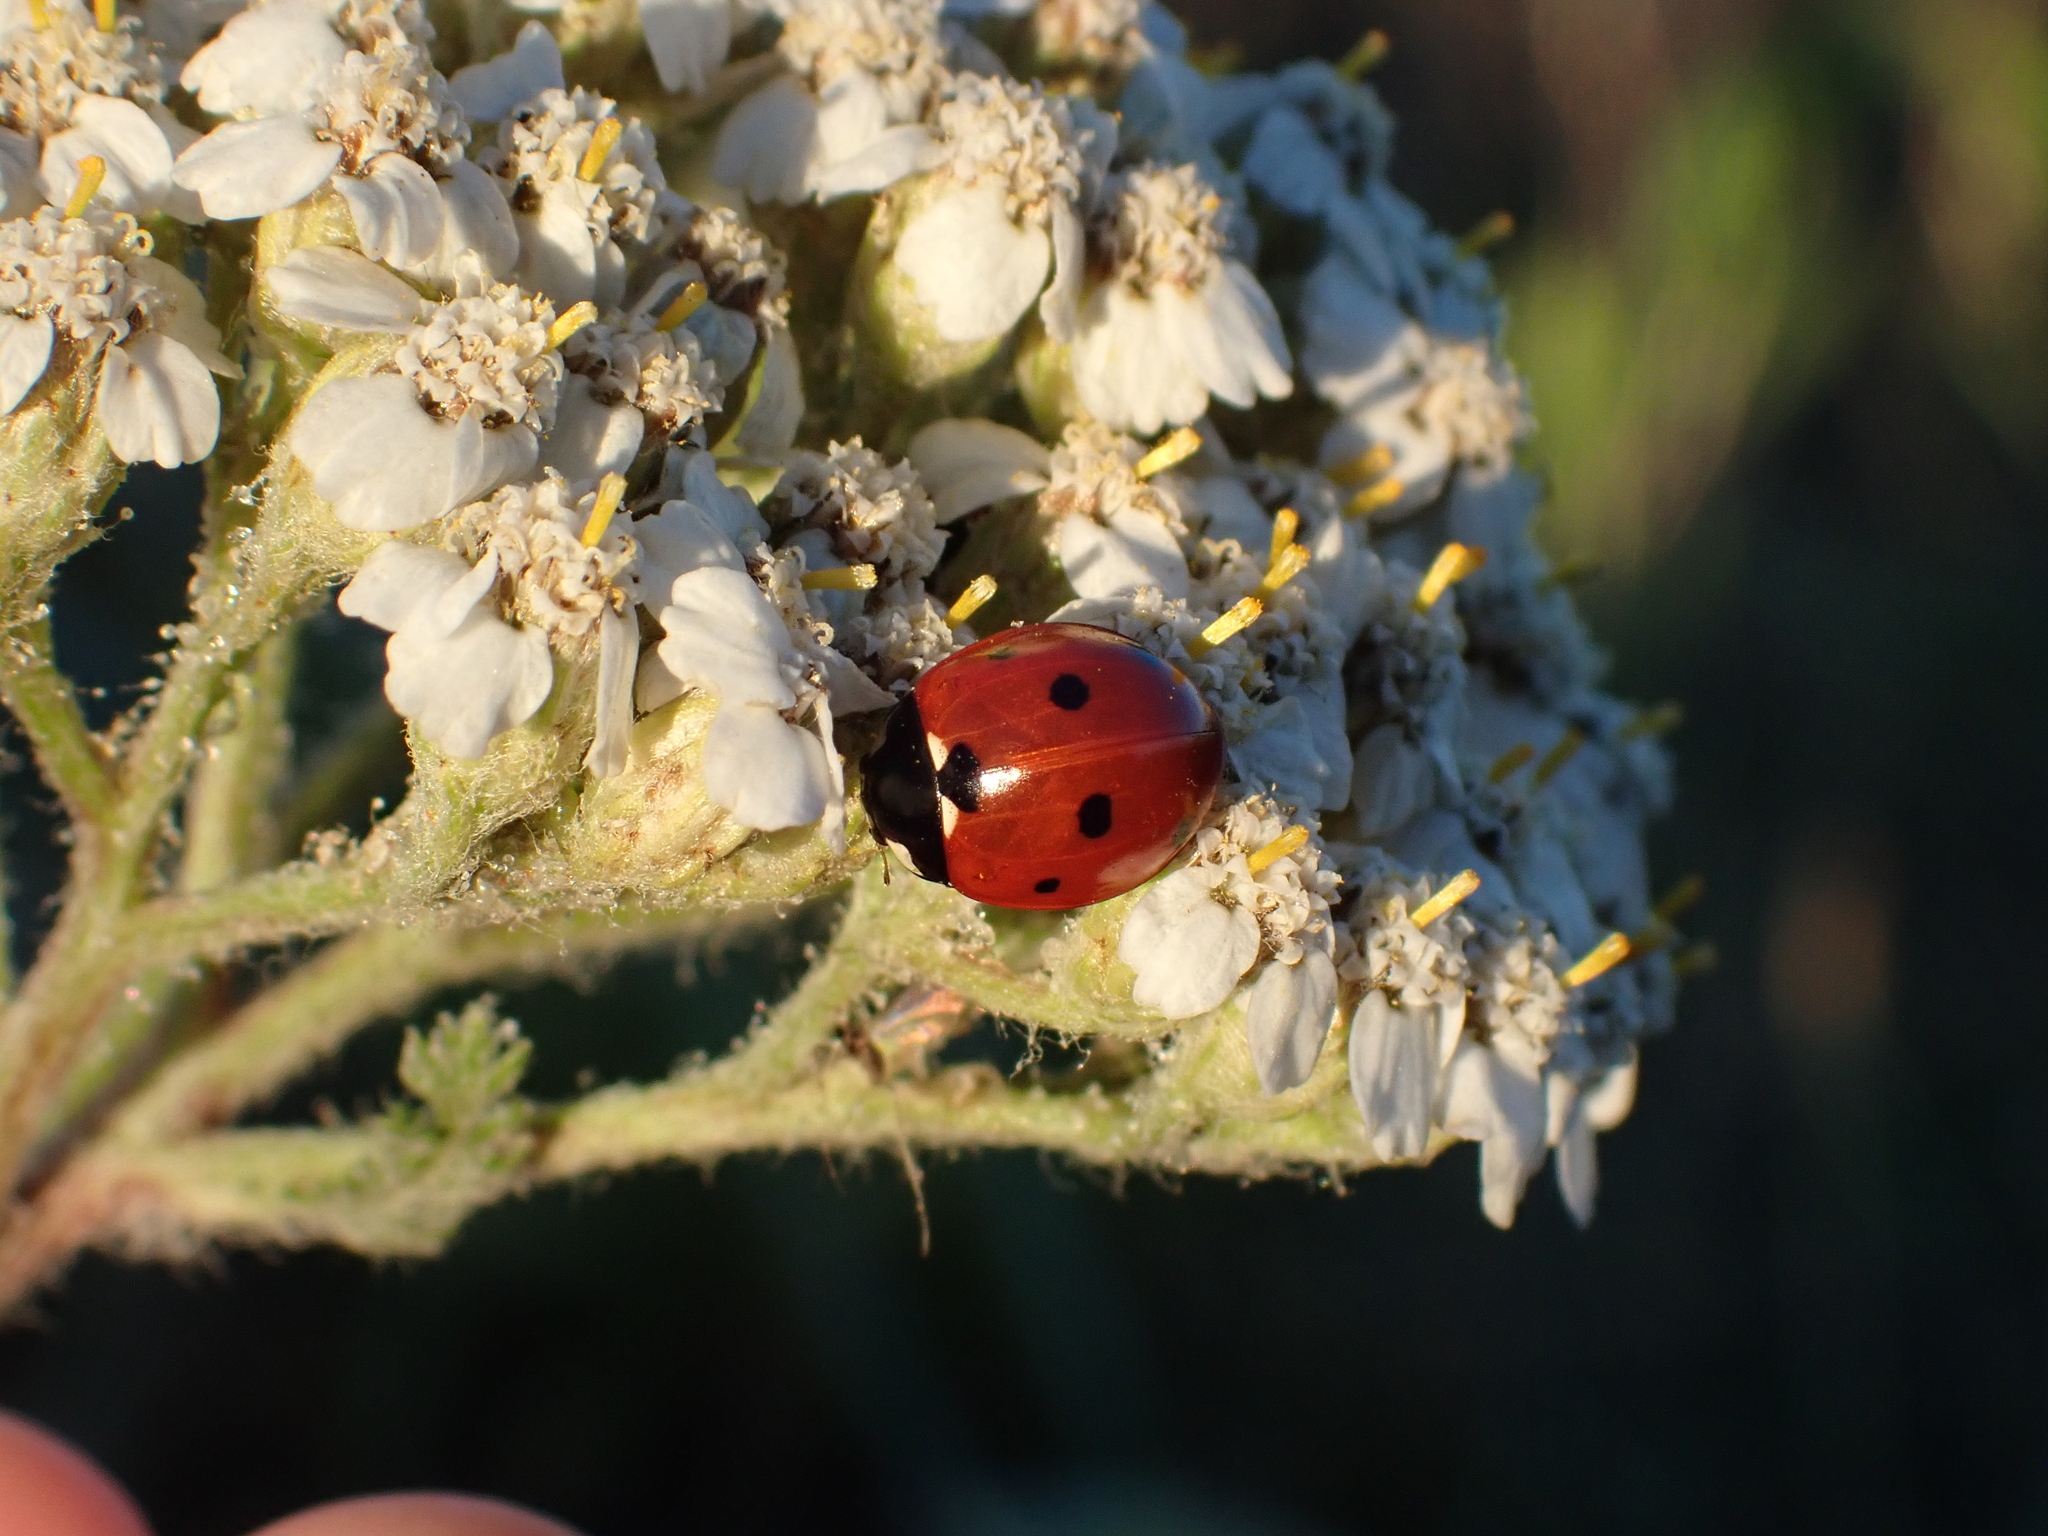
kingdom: Animalia
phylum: Arthropoda
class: Insecta
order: Coleoptera
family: Coccinellidae
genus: Coccinella
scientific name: Coccinella septempunctata
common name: Sevenspotted lady beetle
